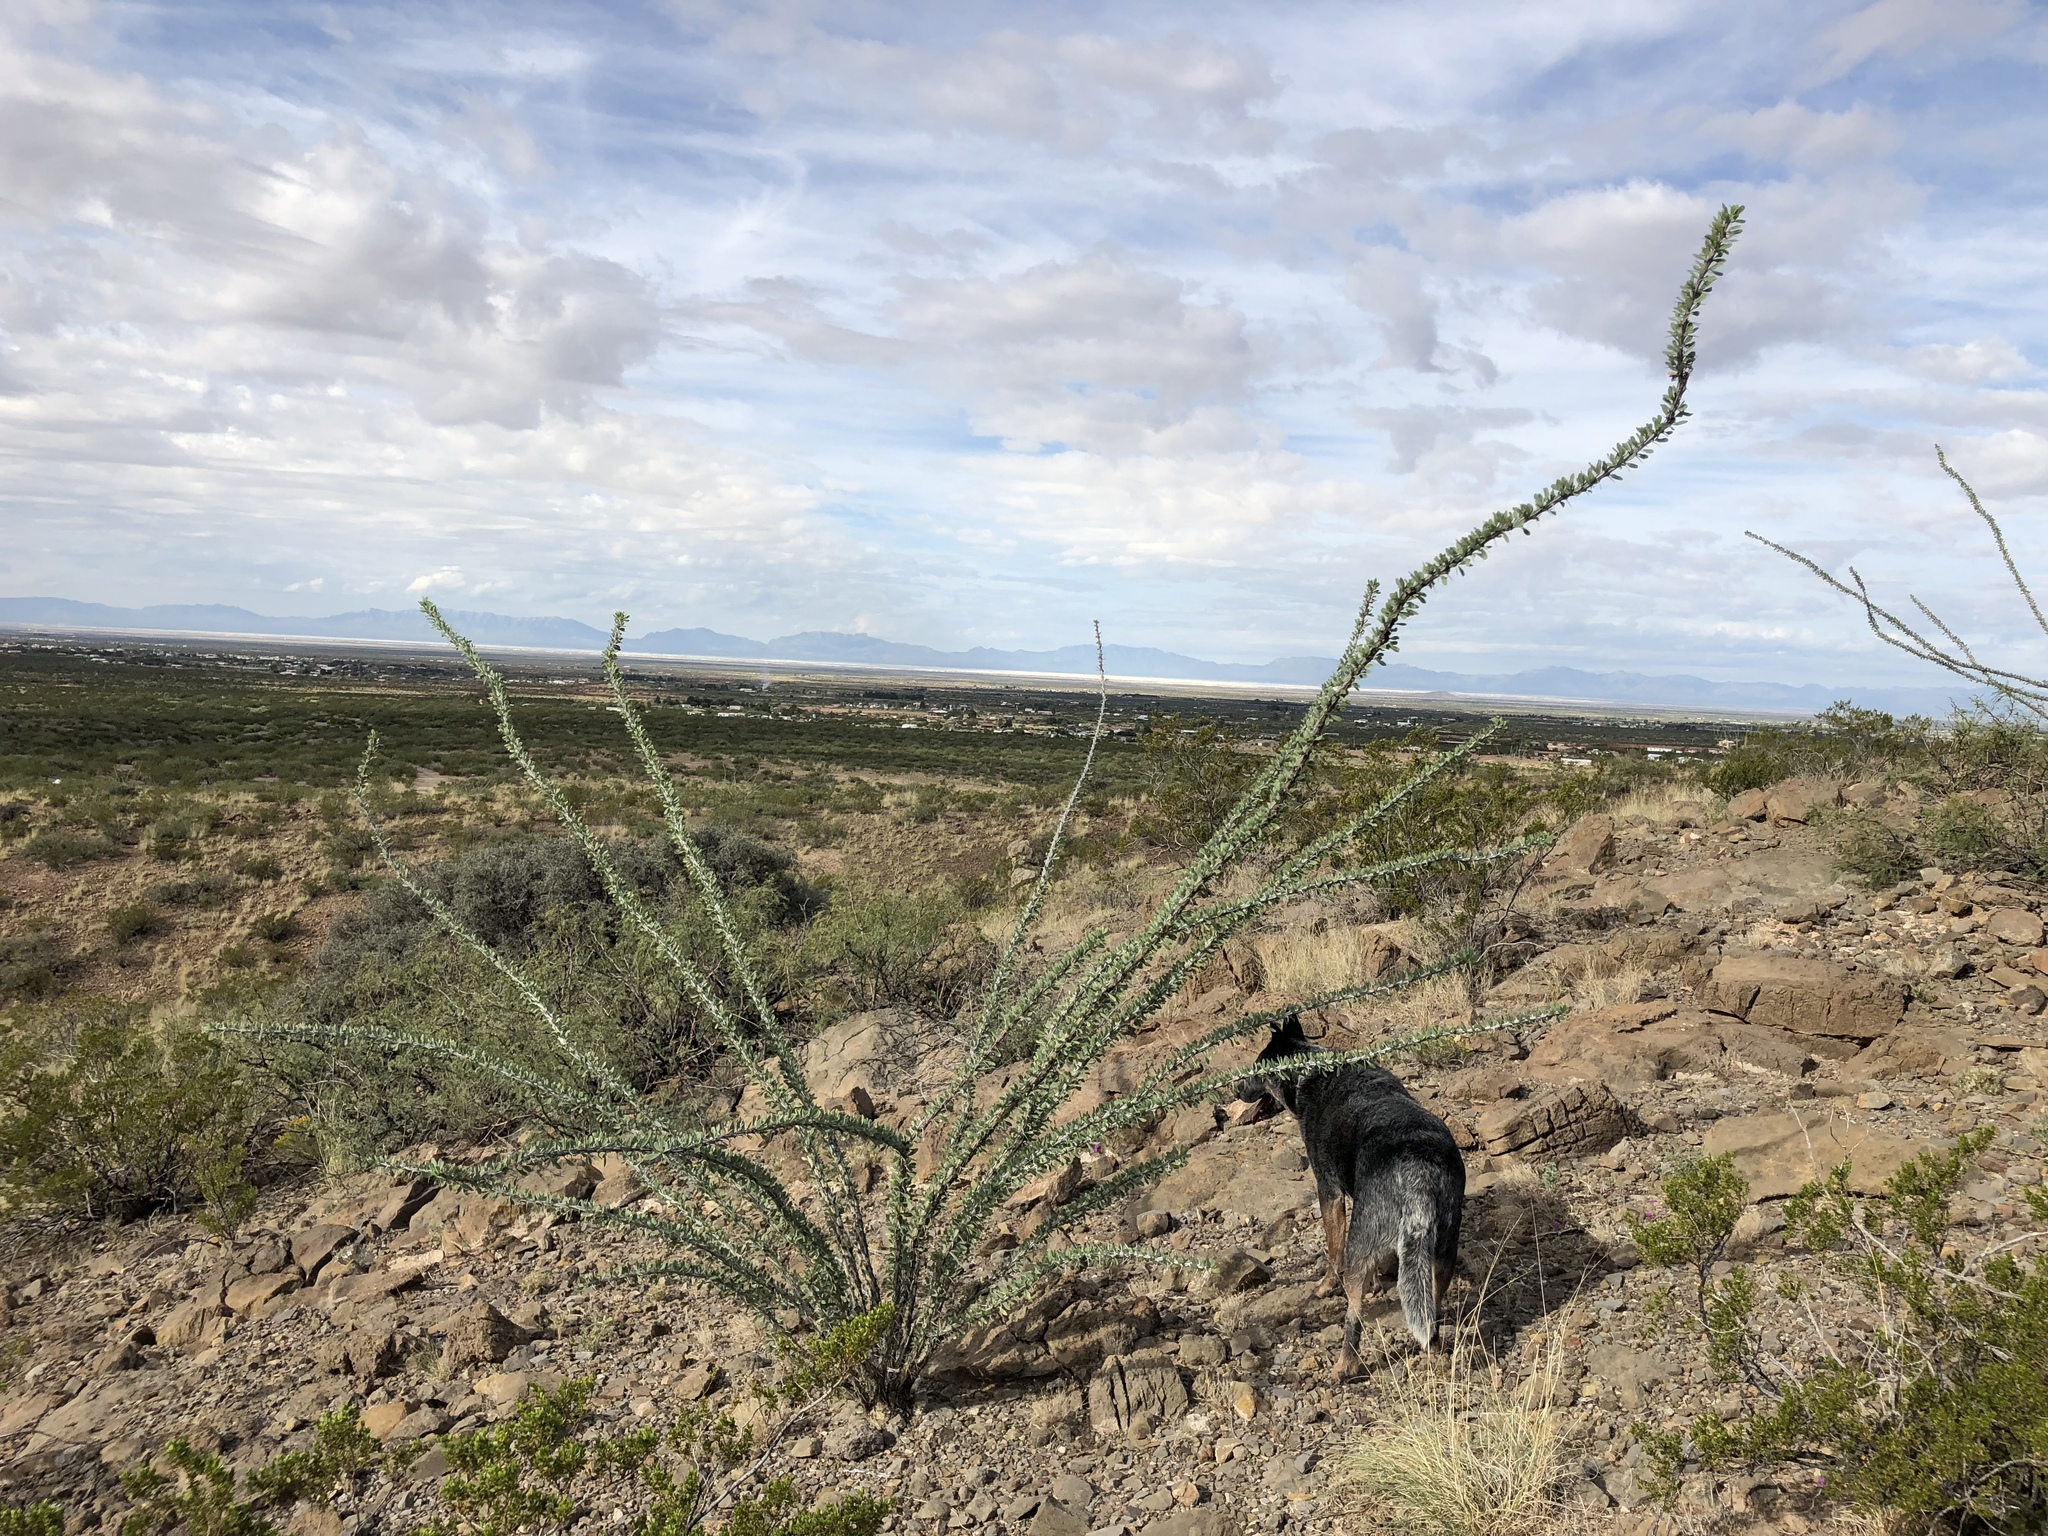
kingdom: Plantae
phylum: Tracheophyta
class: Magnoliopsida
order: Ericales
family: Fouquieriaceae
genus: Fouquieria
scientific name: Fouquieria splendens
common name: Vine-cactus
